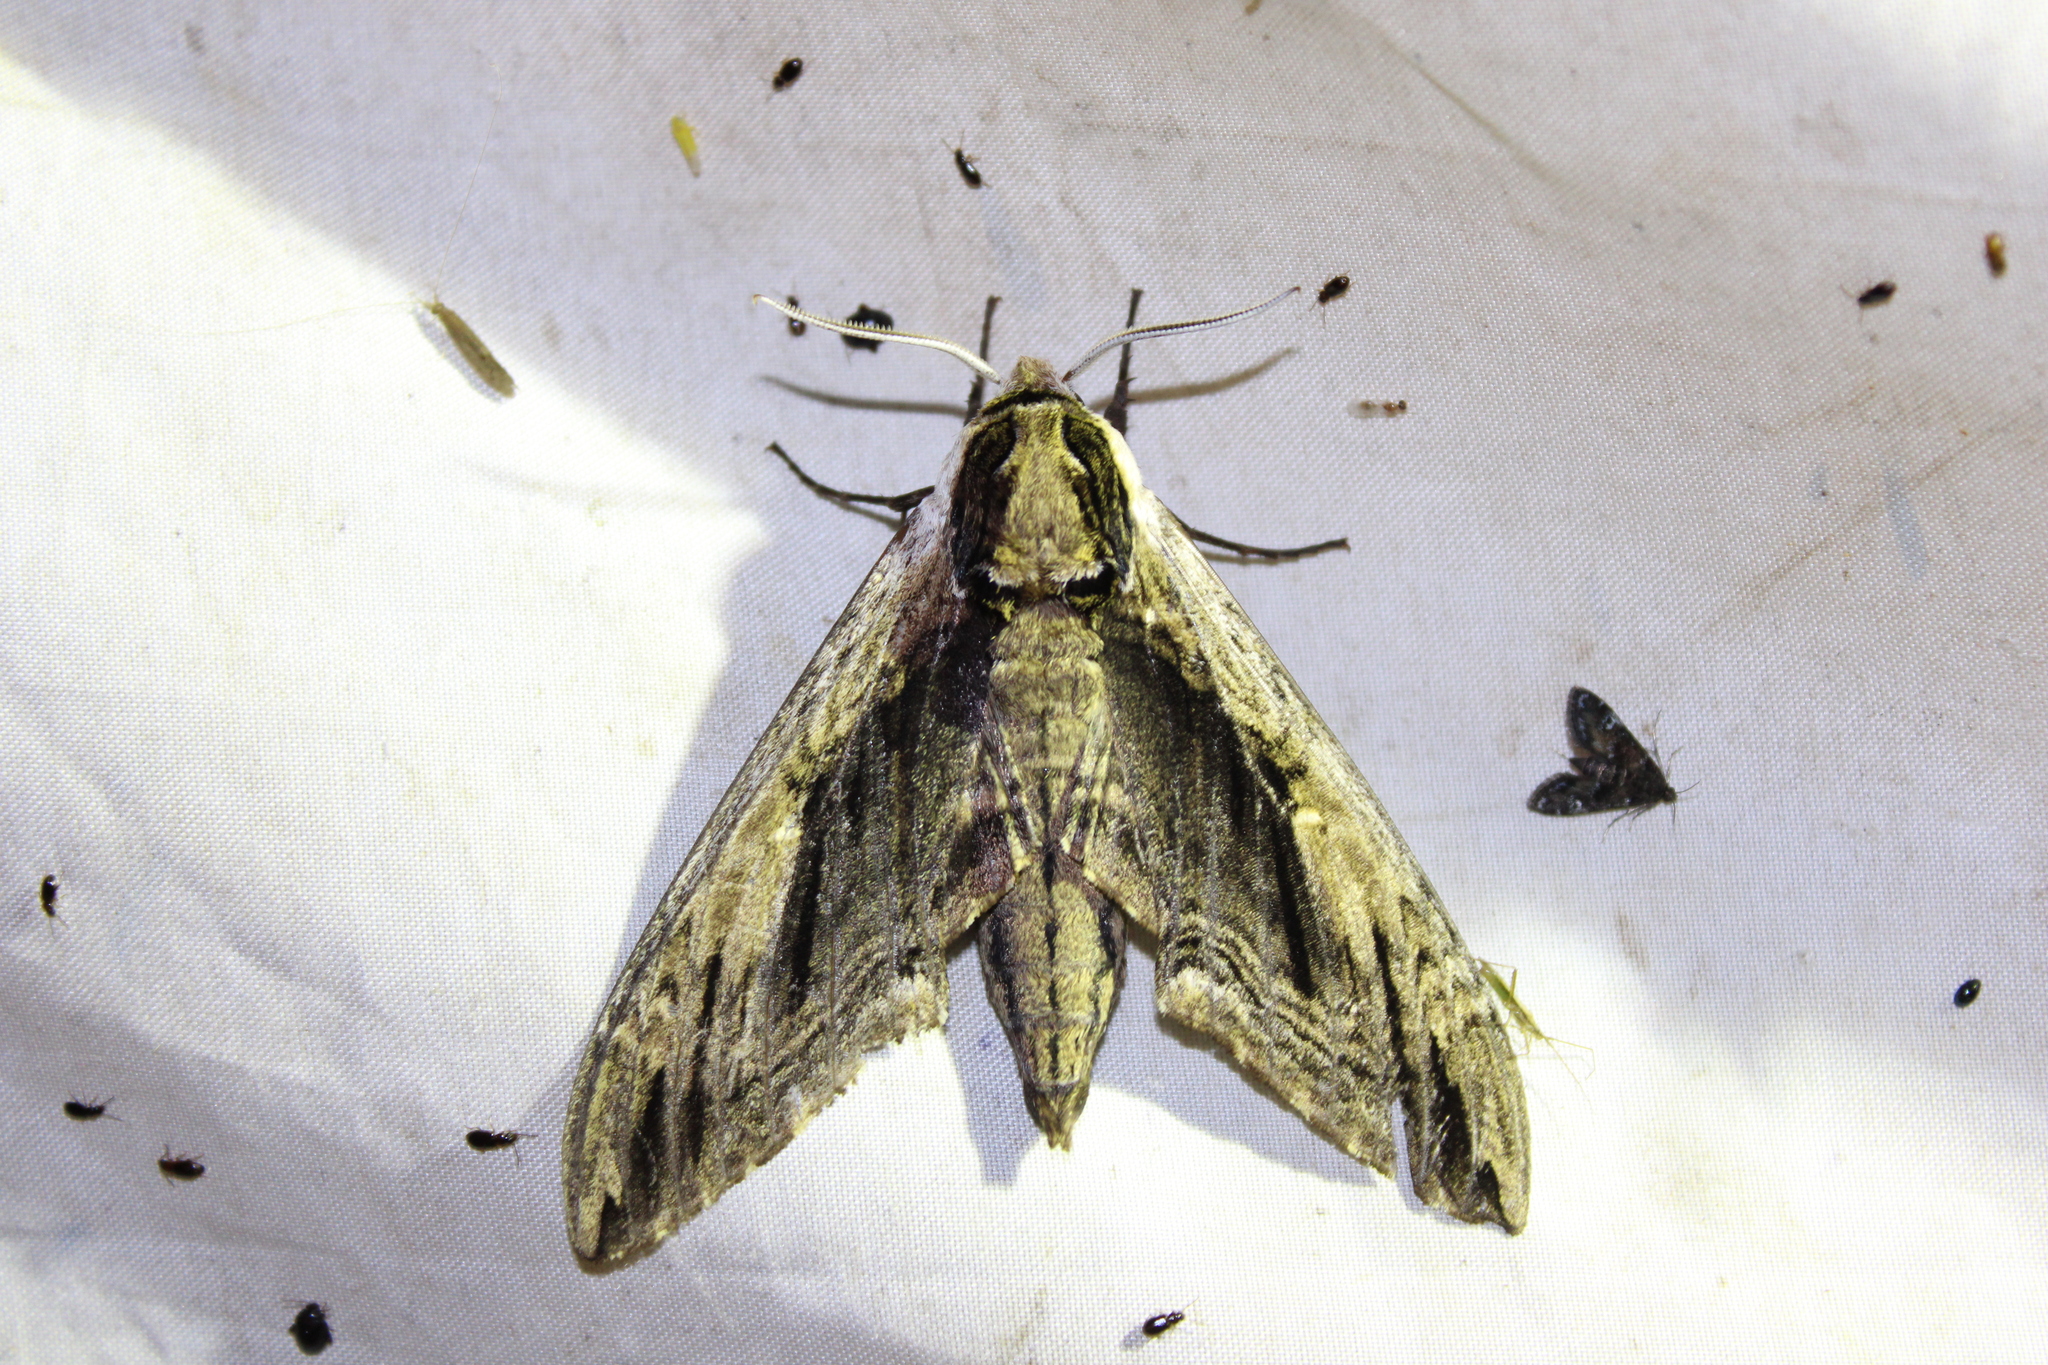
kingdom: Animalia
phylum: Arthropoda
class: Insecta
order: Lepidoptera
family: Sphingidae
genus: Ceratomia
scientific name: Ceratomia amyntor
